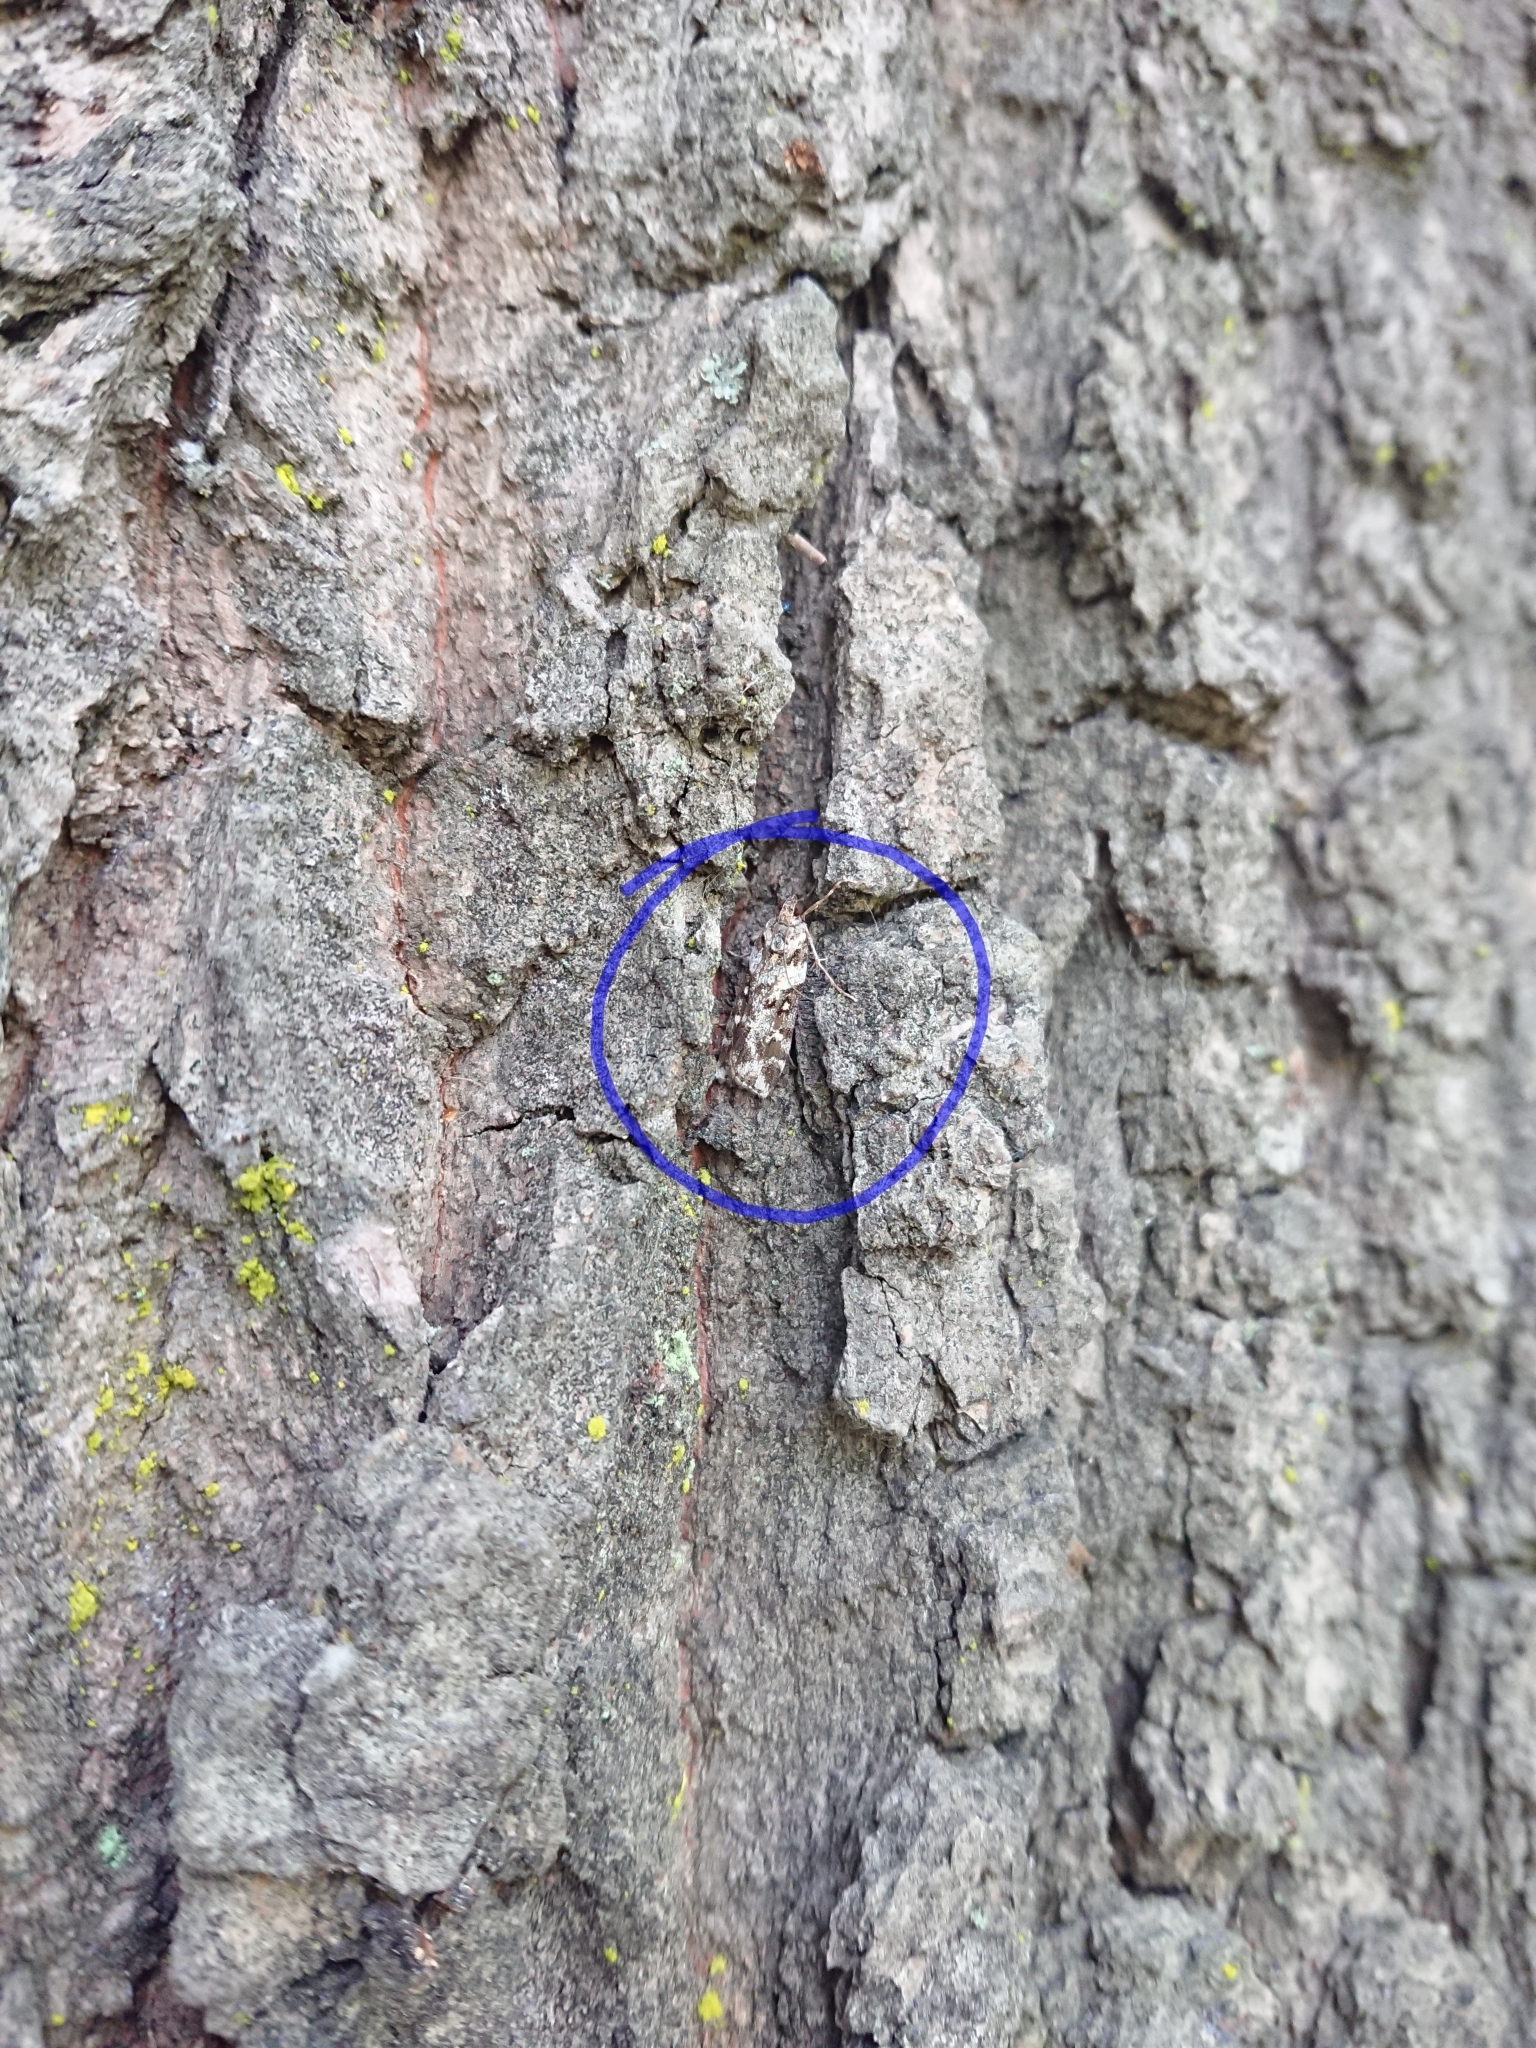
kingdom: Animalia
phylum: Arthropoda
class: Insecta
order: Lepidoptera
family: Crambidae
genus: Eudonia
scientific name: Eudonia diphtheralis
